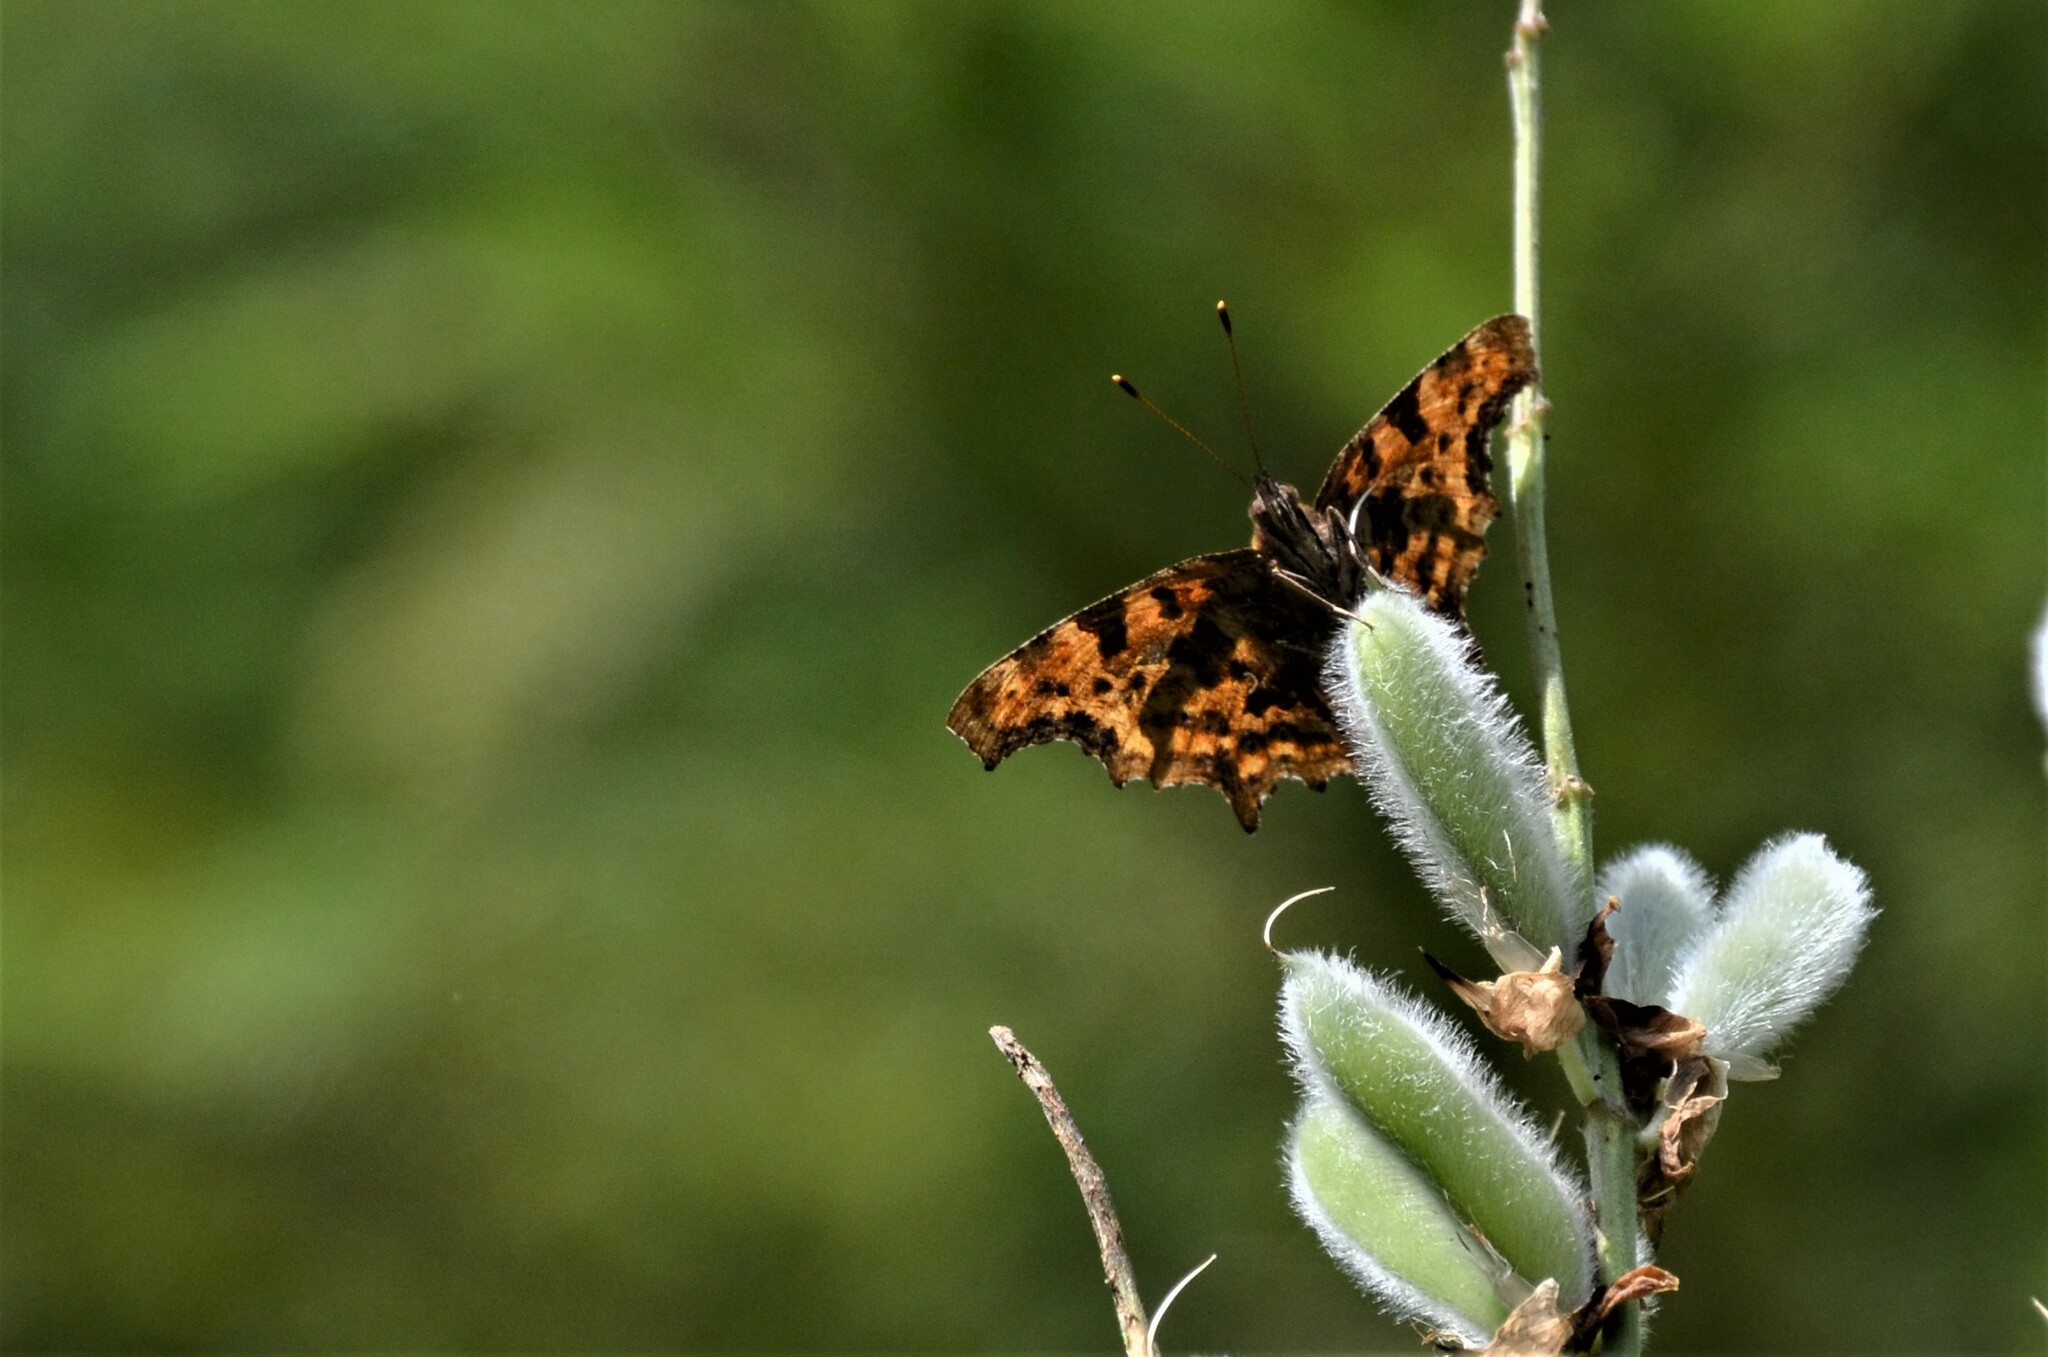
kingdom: Animalia
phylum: Arthropoda
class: Insecta
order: Lepidoptera
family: Nymphalidae
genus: Polygonia
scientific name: Polygonia c-album
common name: Comma
